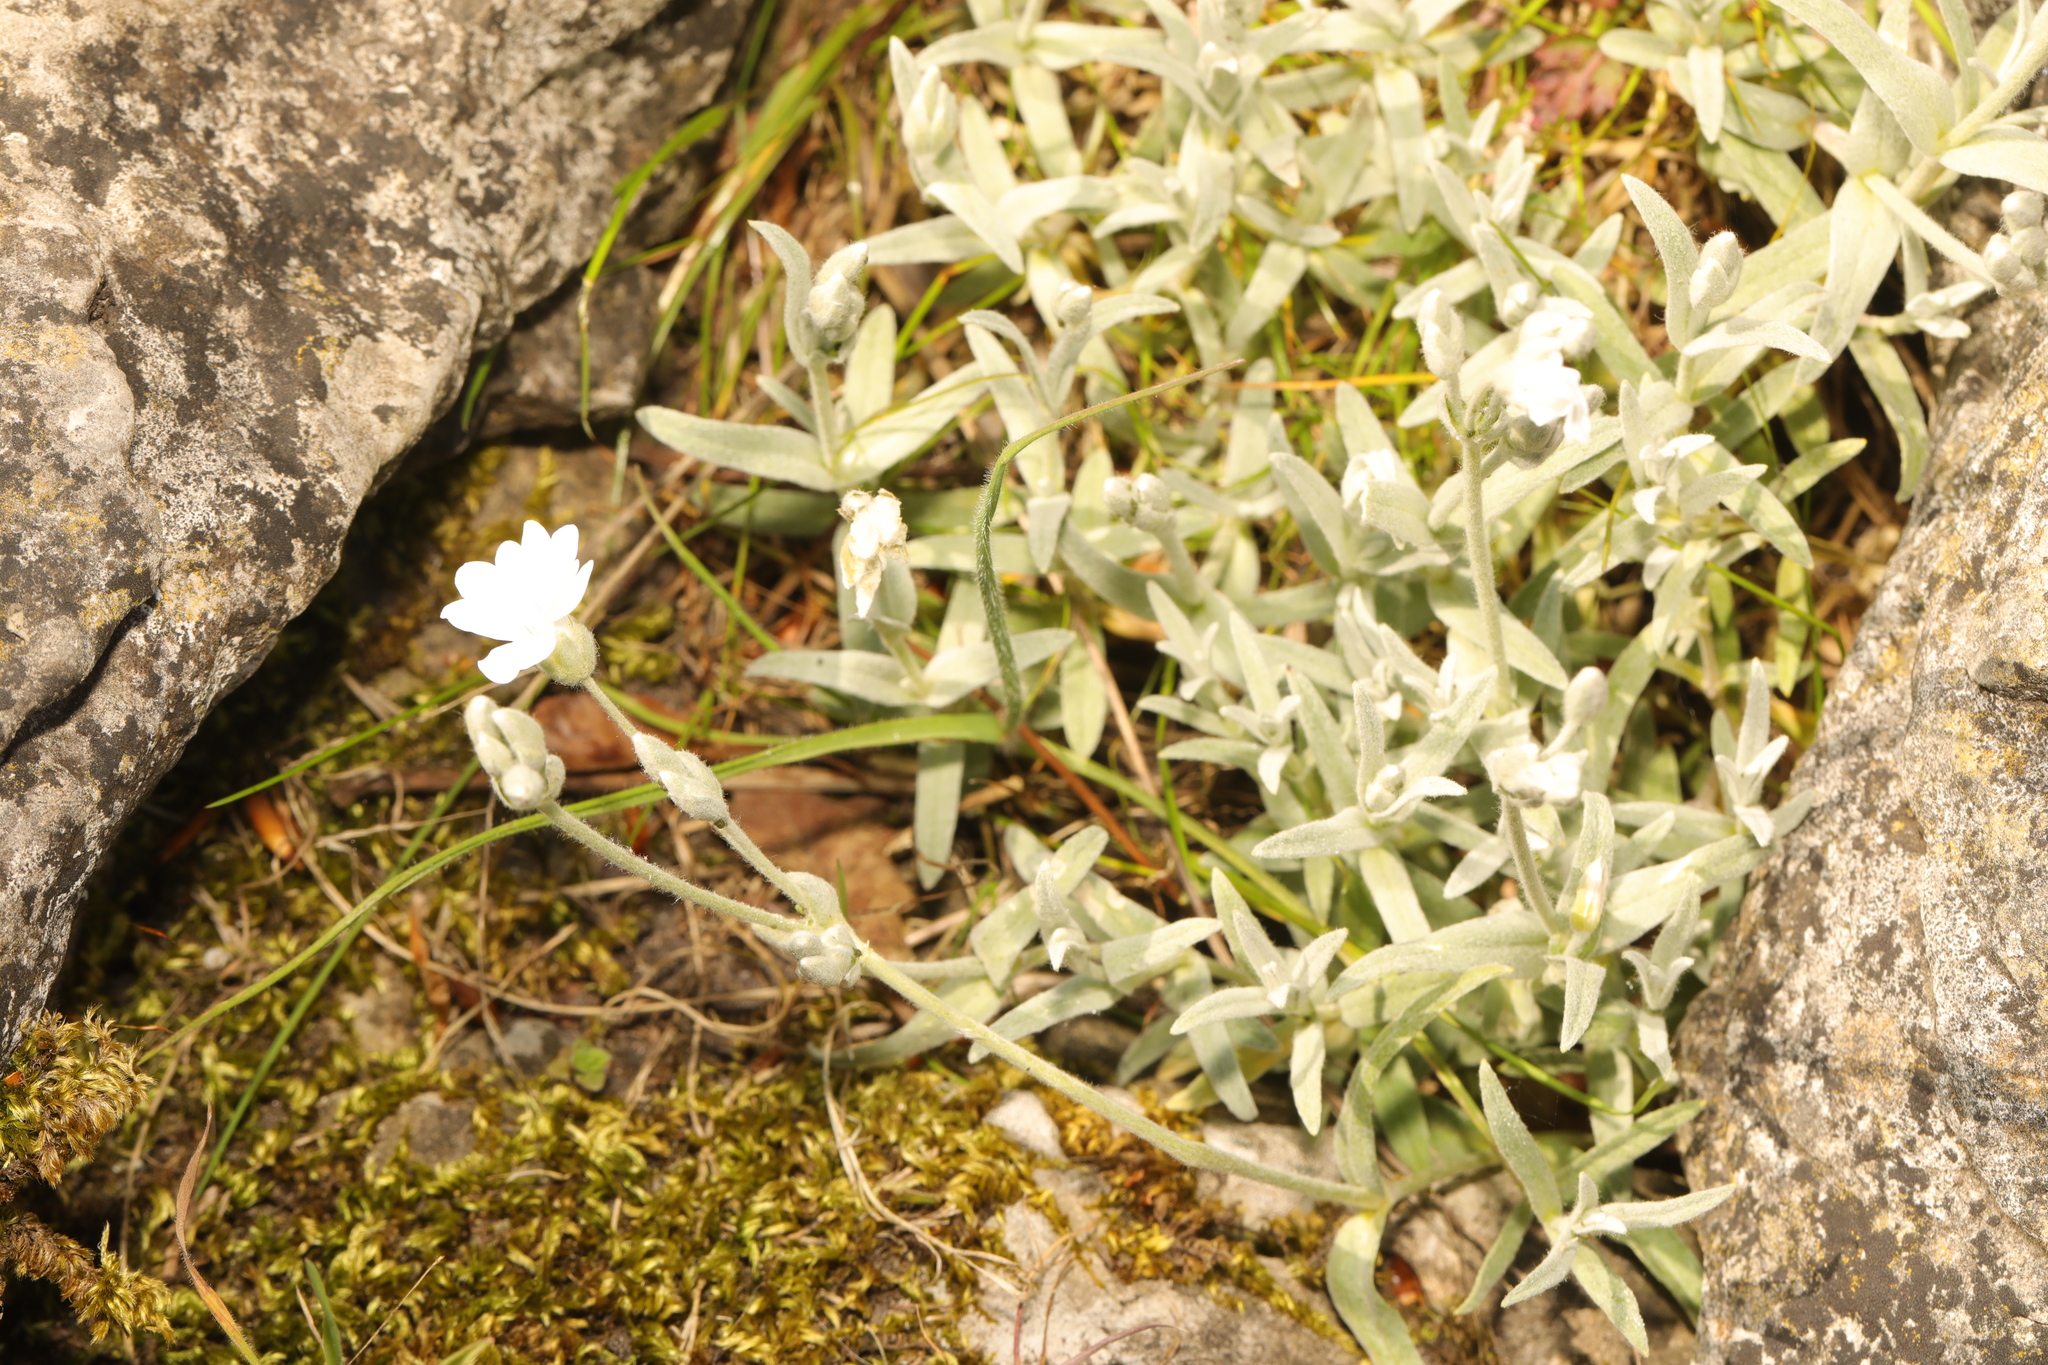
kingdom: Plantae
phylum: Tracheophyta
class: Magnoliopsida
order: Caryophyllales
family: Caryophyllaceae
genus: Cerastium
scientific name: Cerastium tomentosum
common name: Snow-in-summer
